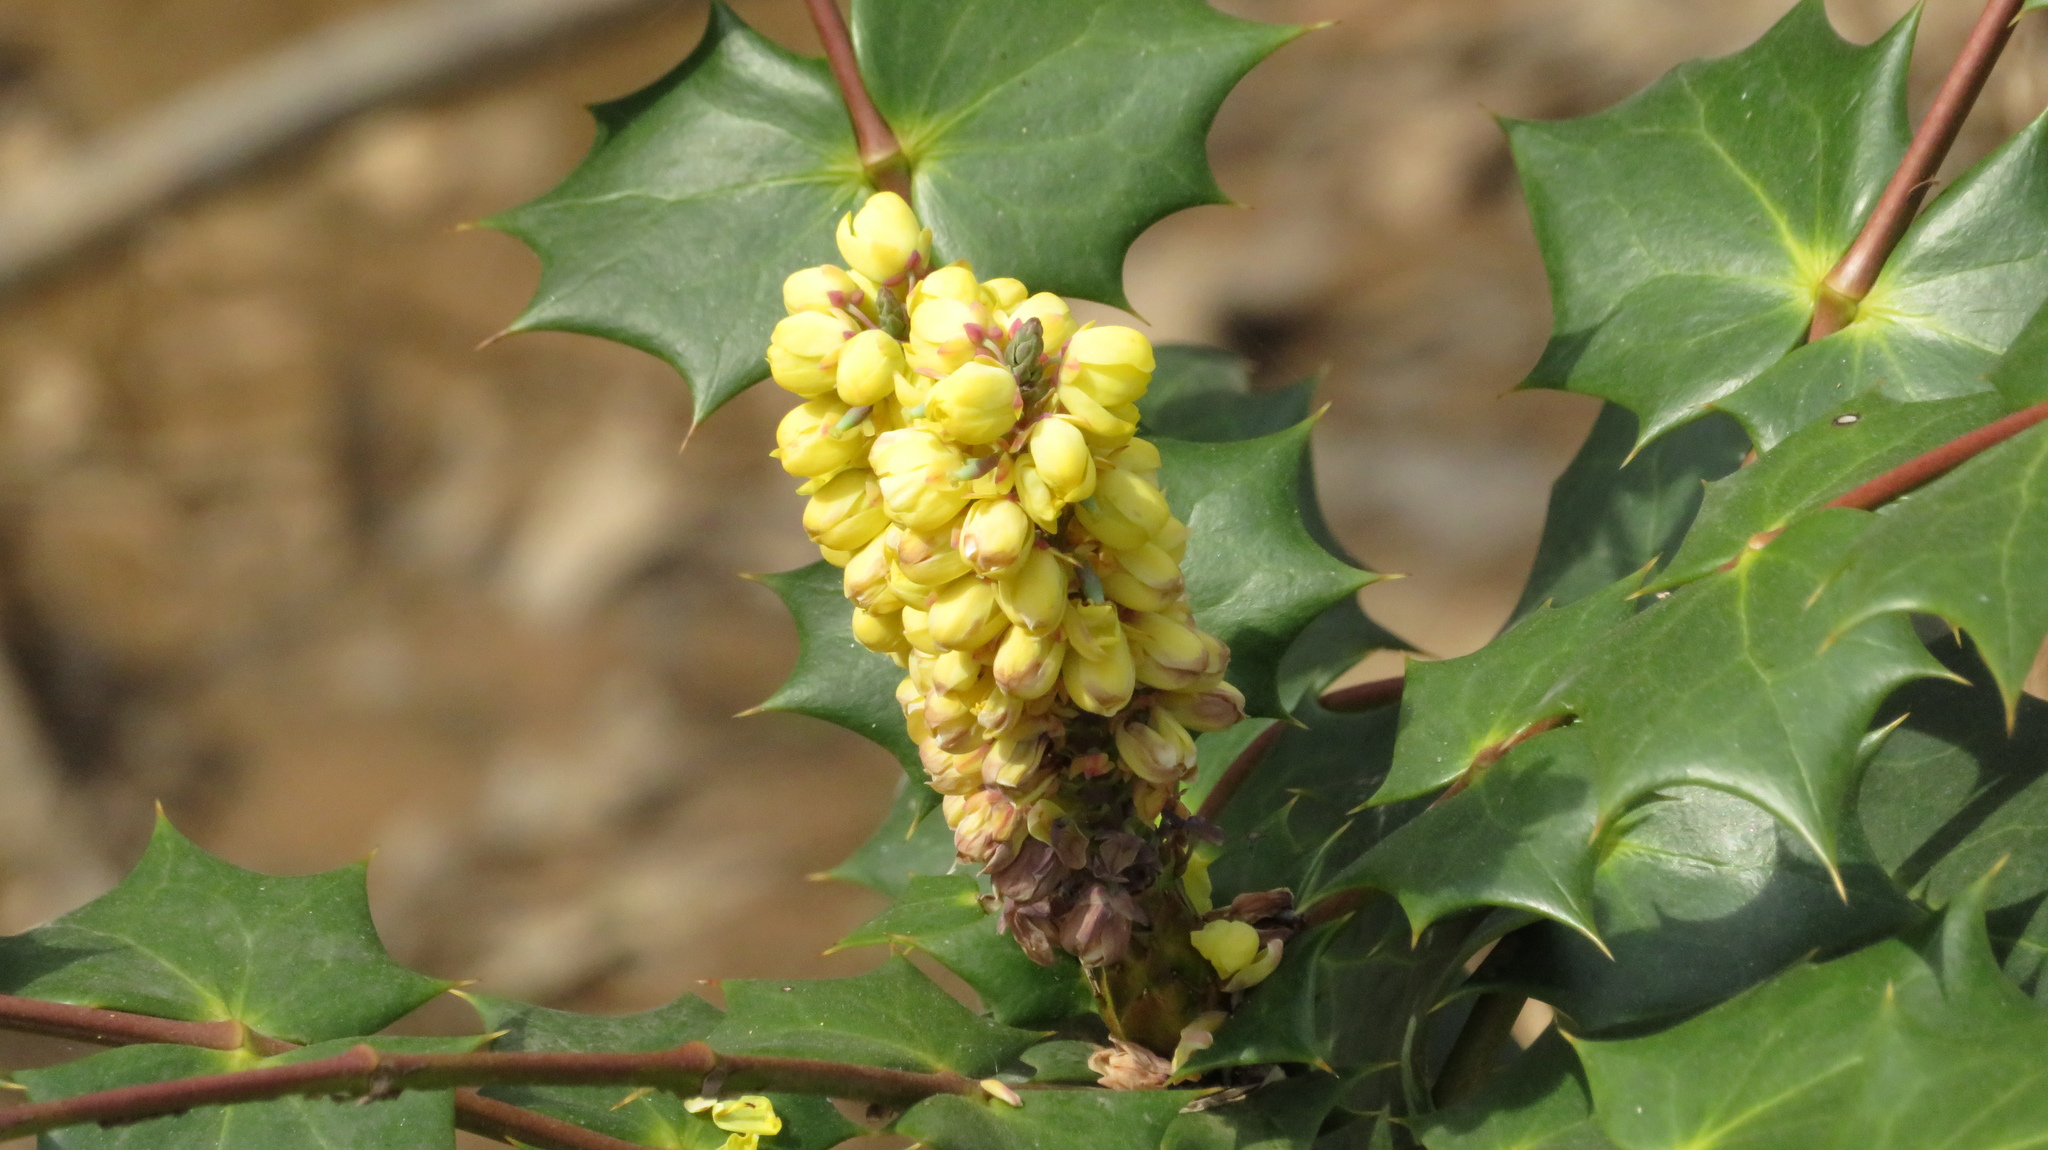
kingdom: Plantae
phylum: Tracheophyta
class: Magnoliopsida
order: Ranunculales
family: Berberidaceae
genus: Mahonia
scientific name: Mahonia bealei
